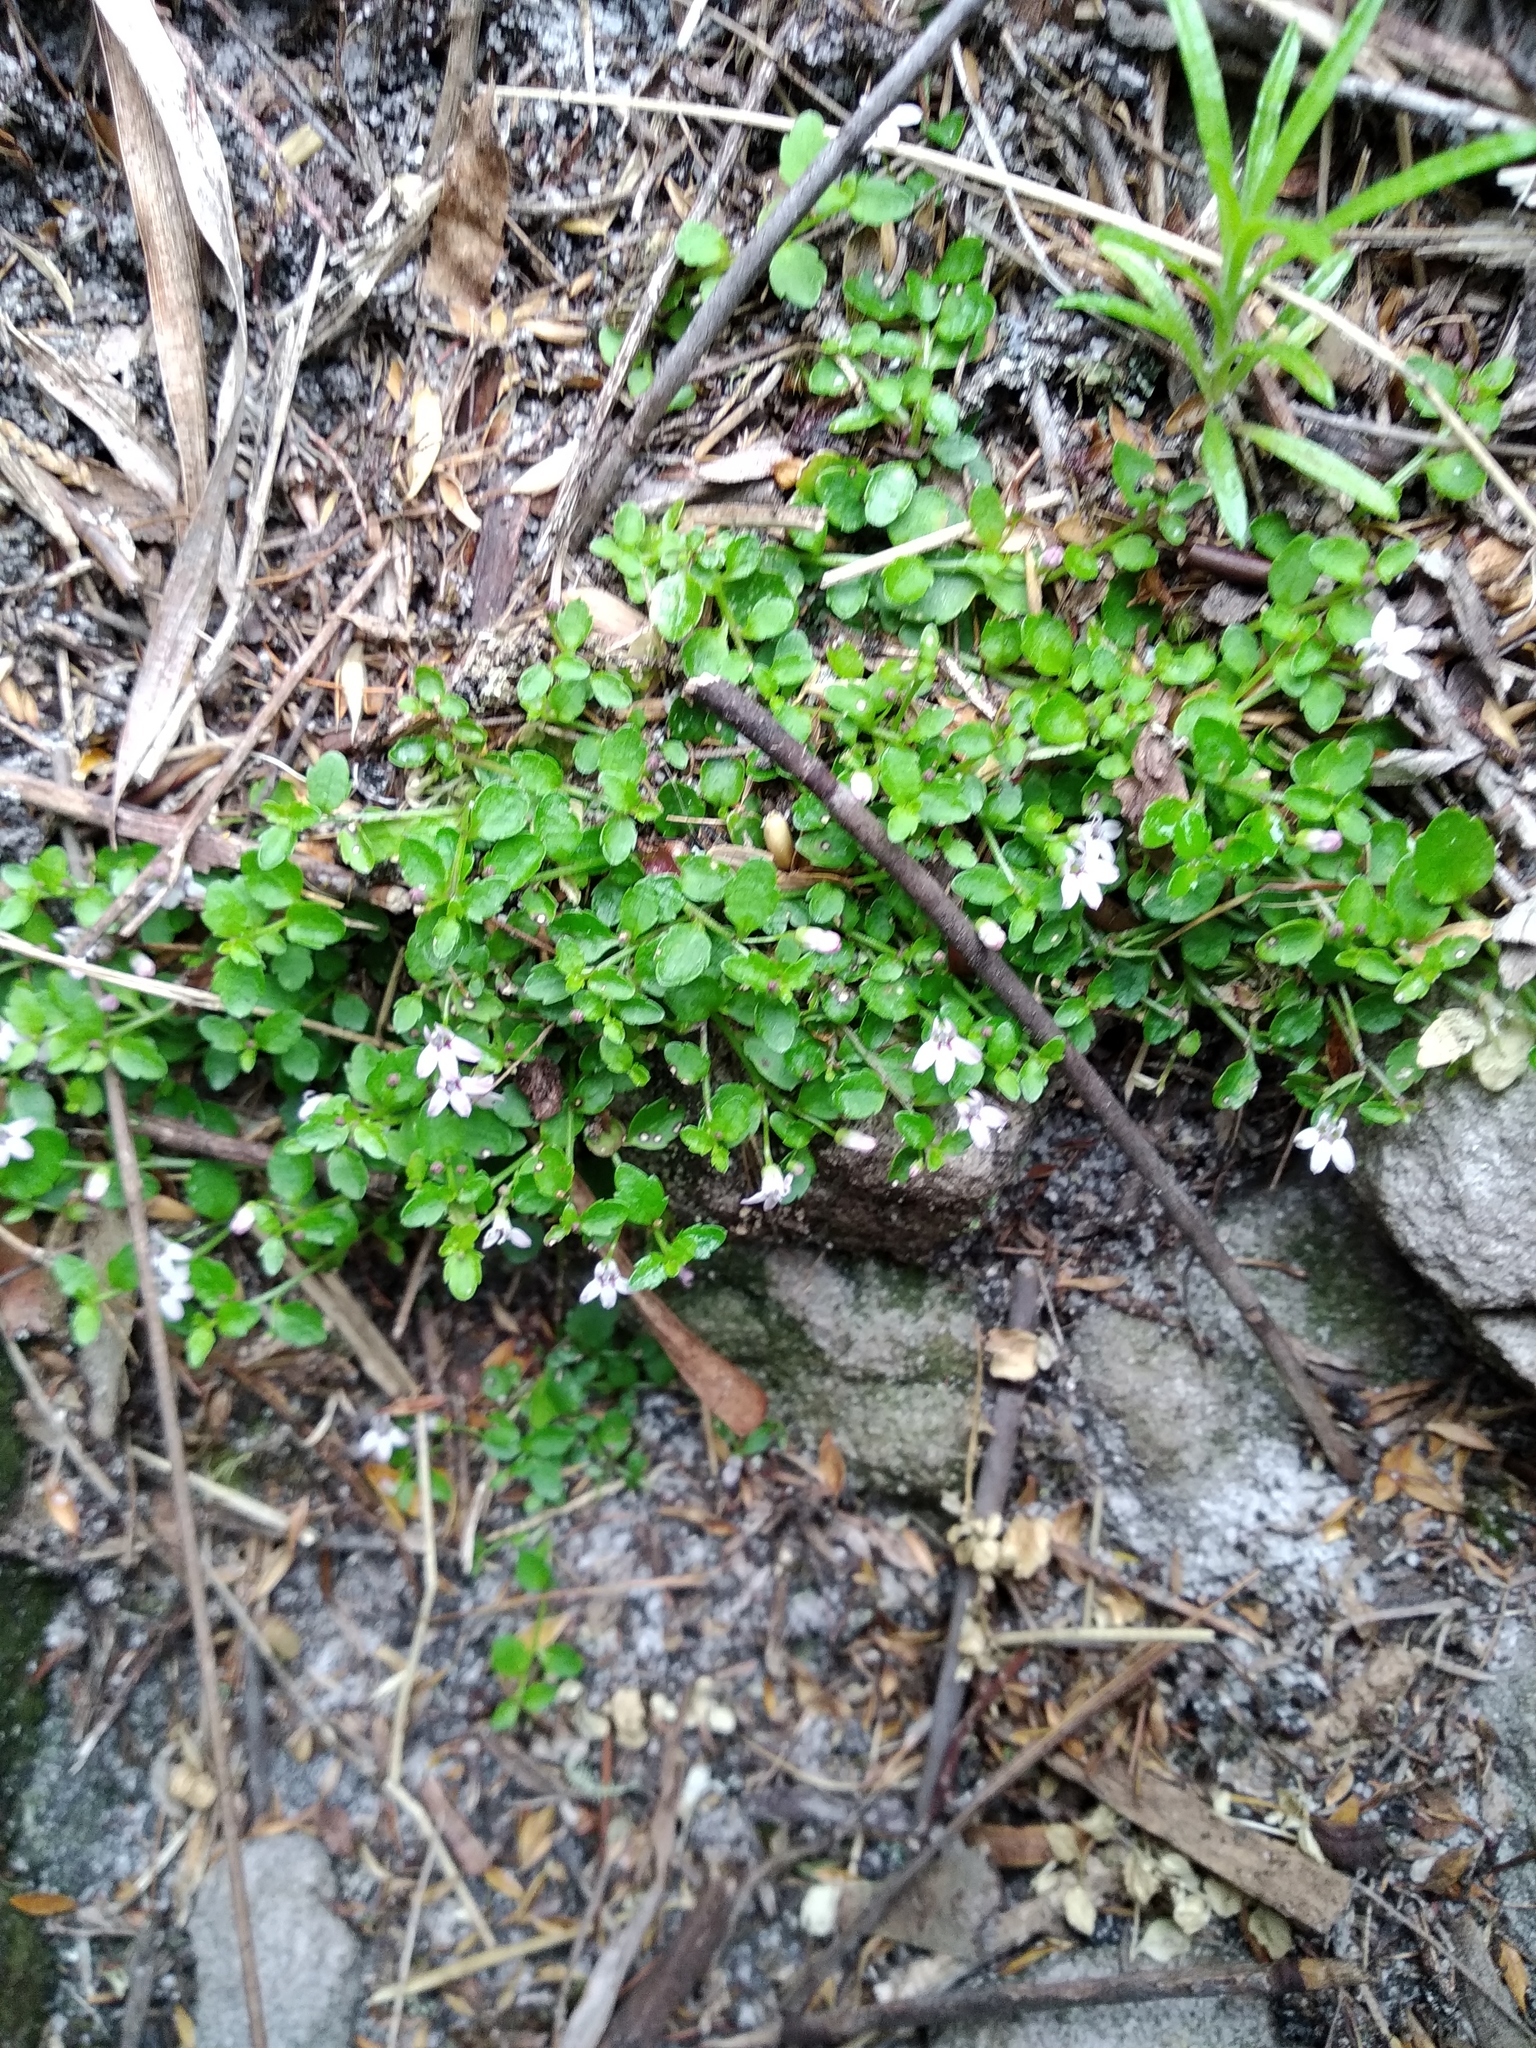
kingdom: Plantae
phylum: Tracheophyta
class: Magnoliopsida
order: Asterales
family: Campanulaceae
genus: Unigenes
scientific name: Unigenes humifusa
